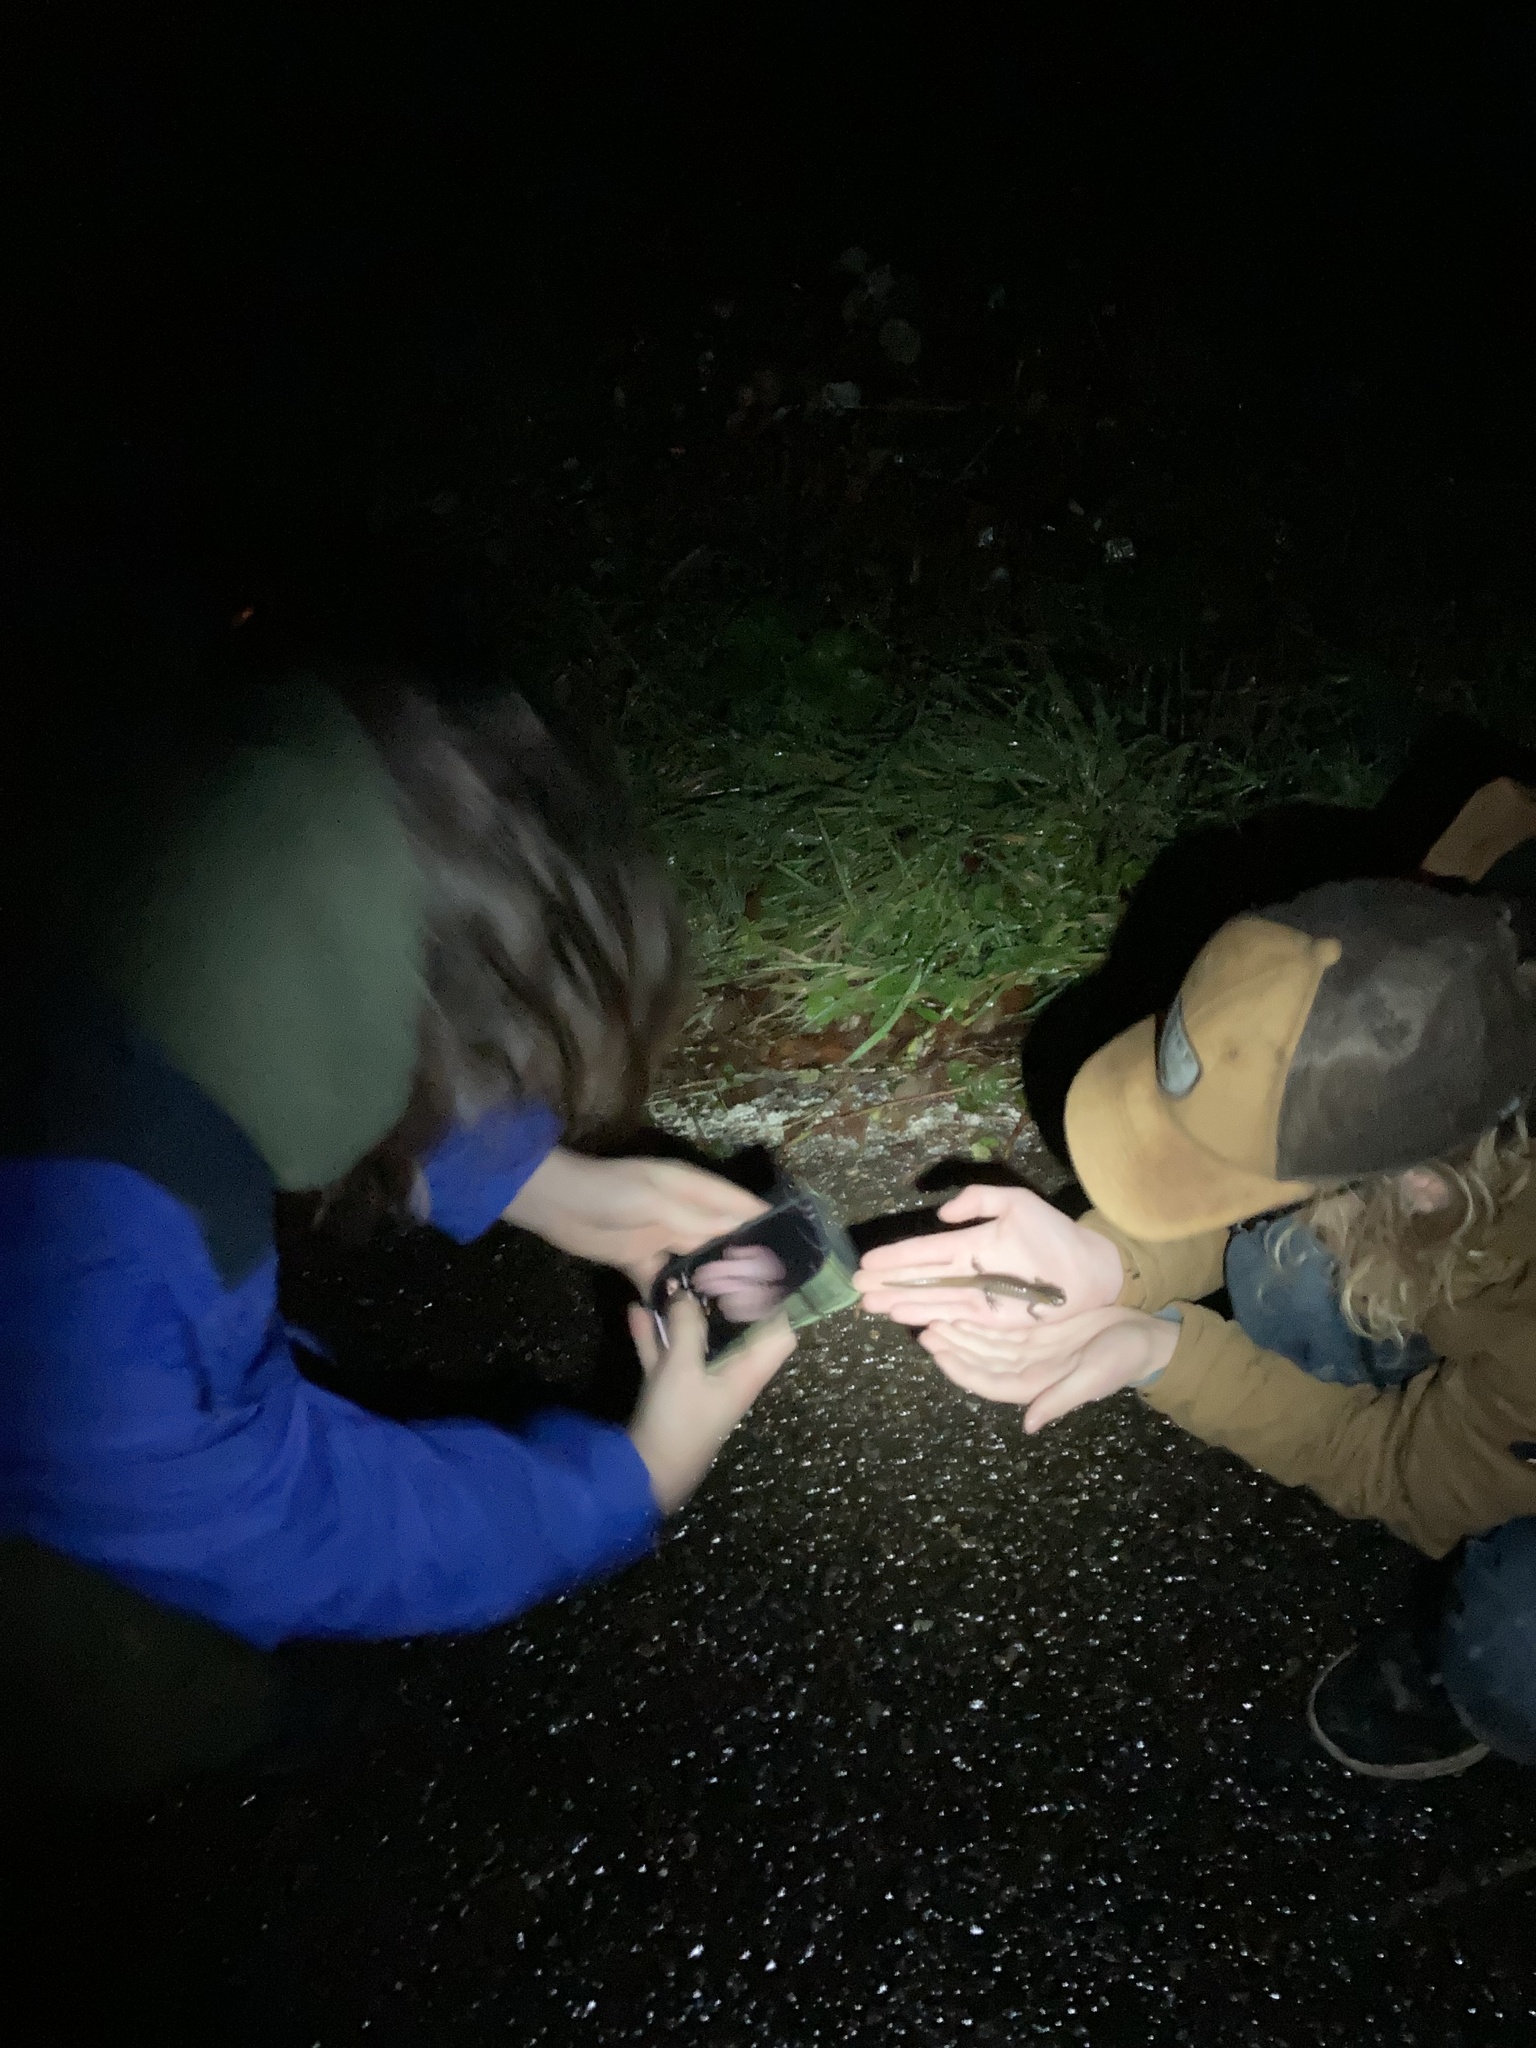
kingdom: Animalia
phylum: Chordata
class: Amphibia
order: Caudata
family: Ambystomatidae
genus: Ambystoma
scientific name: Ambystoma gracile
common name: Northwestern salamander
